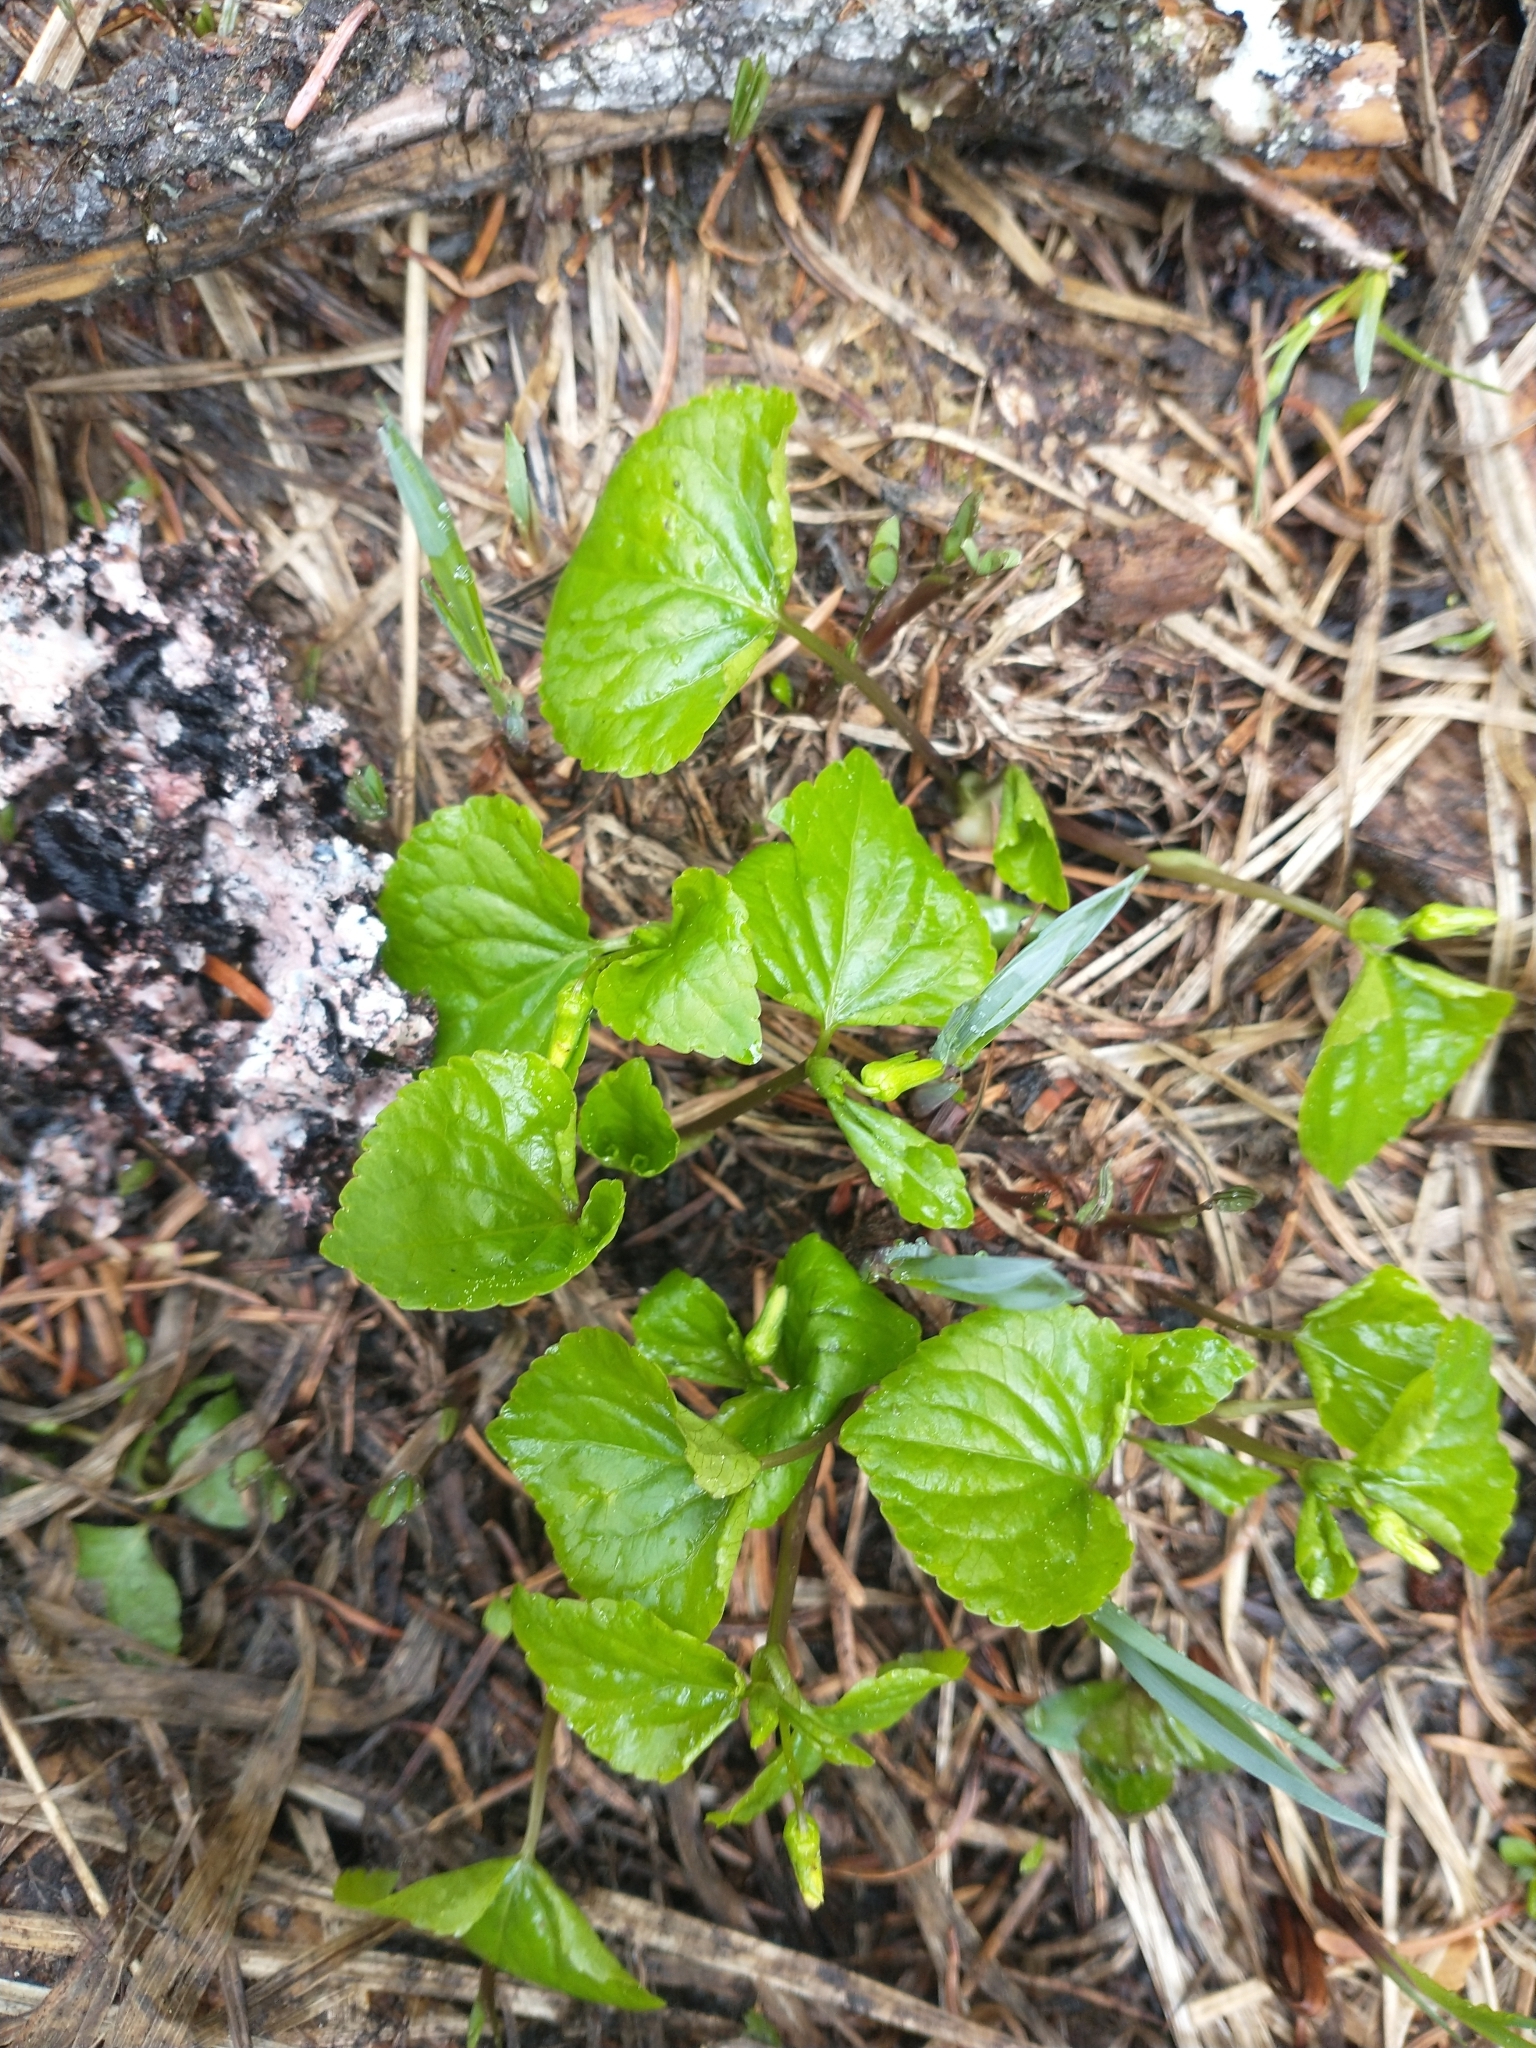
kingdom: Plantae
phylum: Tracheophyta
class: Magnoliopsida
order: Malpighiales
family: Violaceae
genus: Viola
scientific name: Viola glabella
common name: Stream violet
